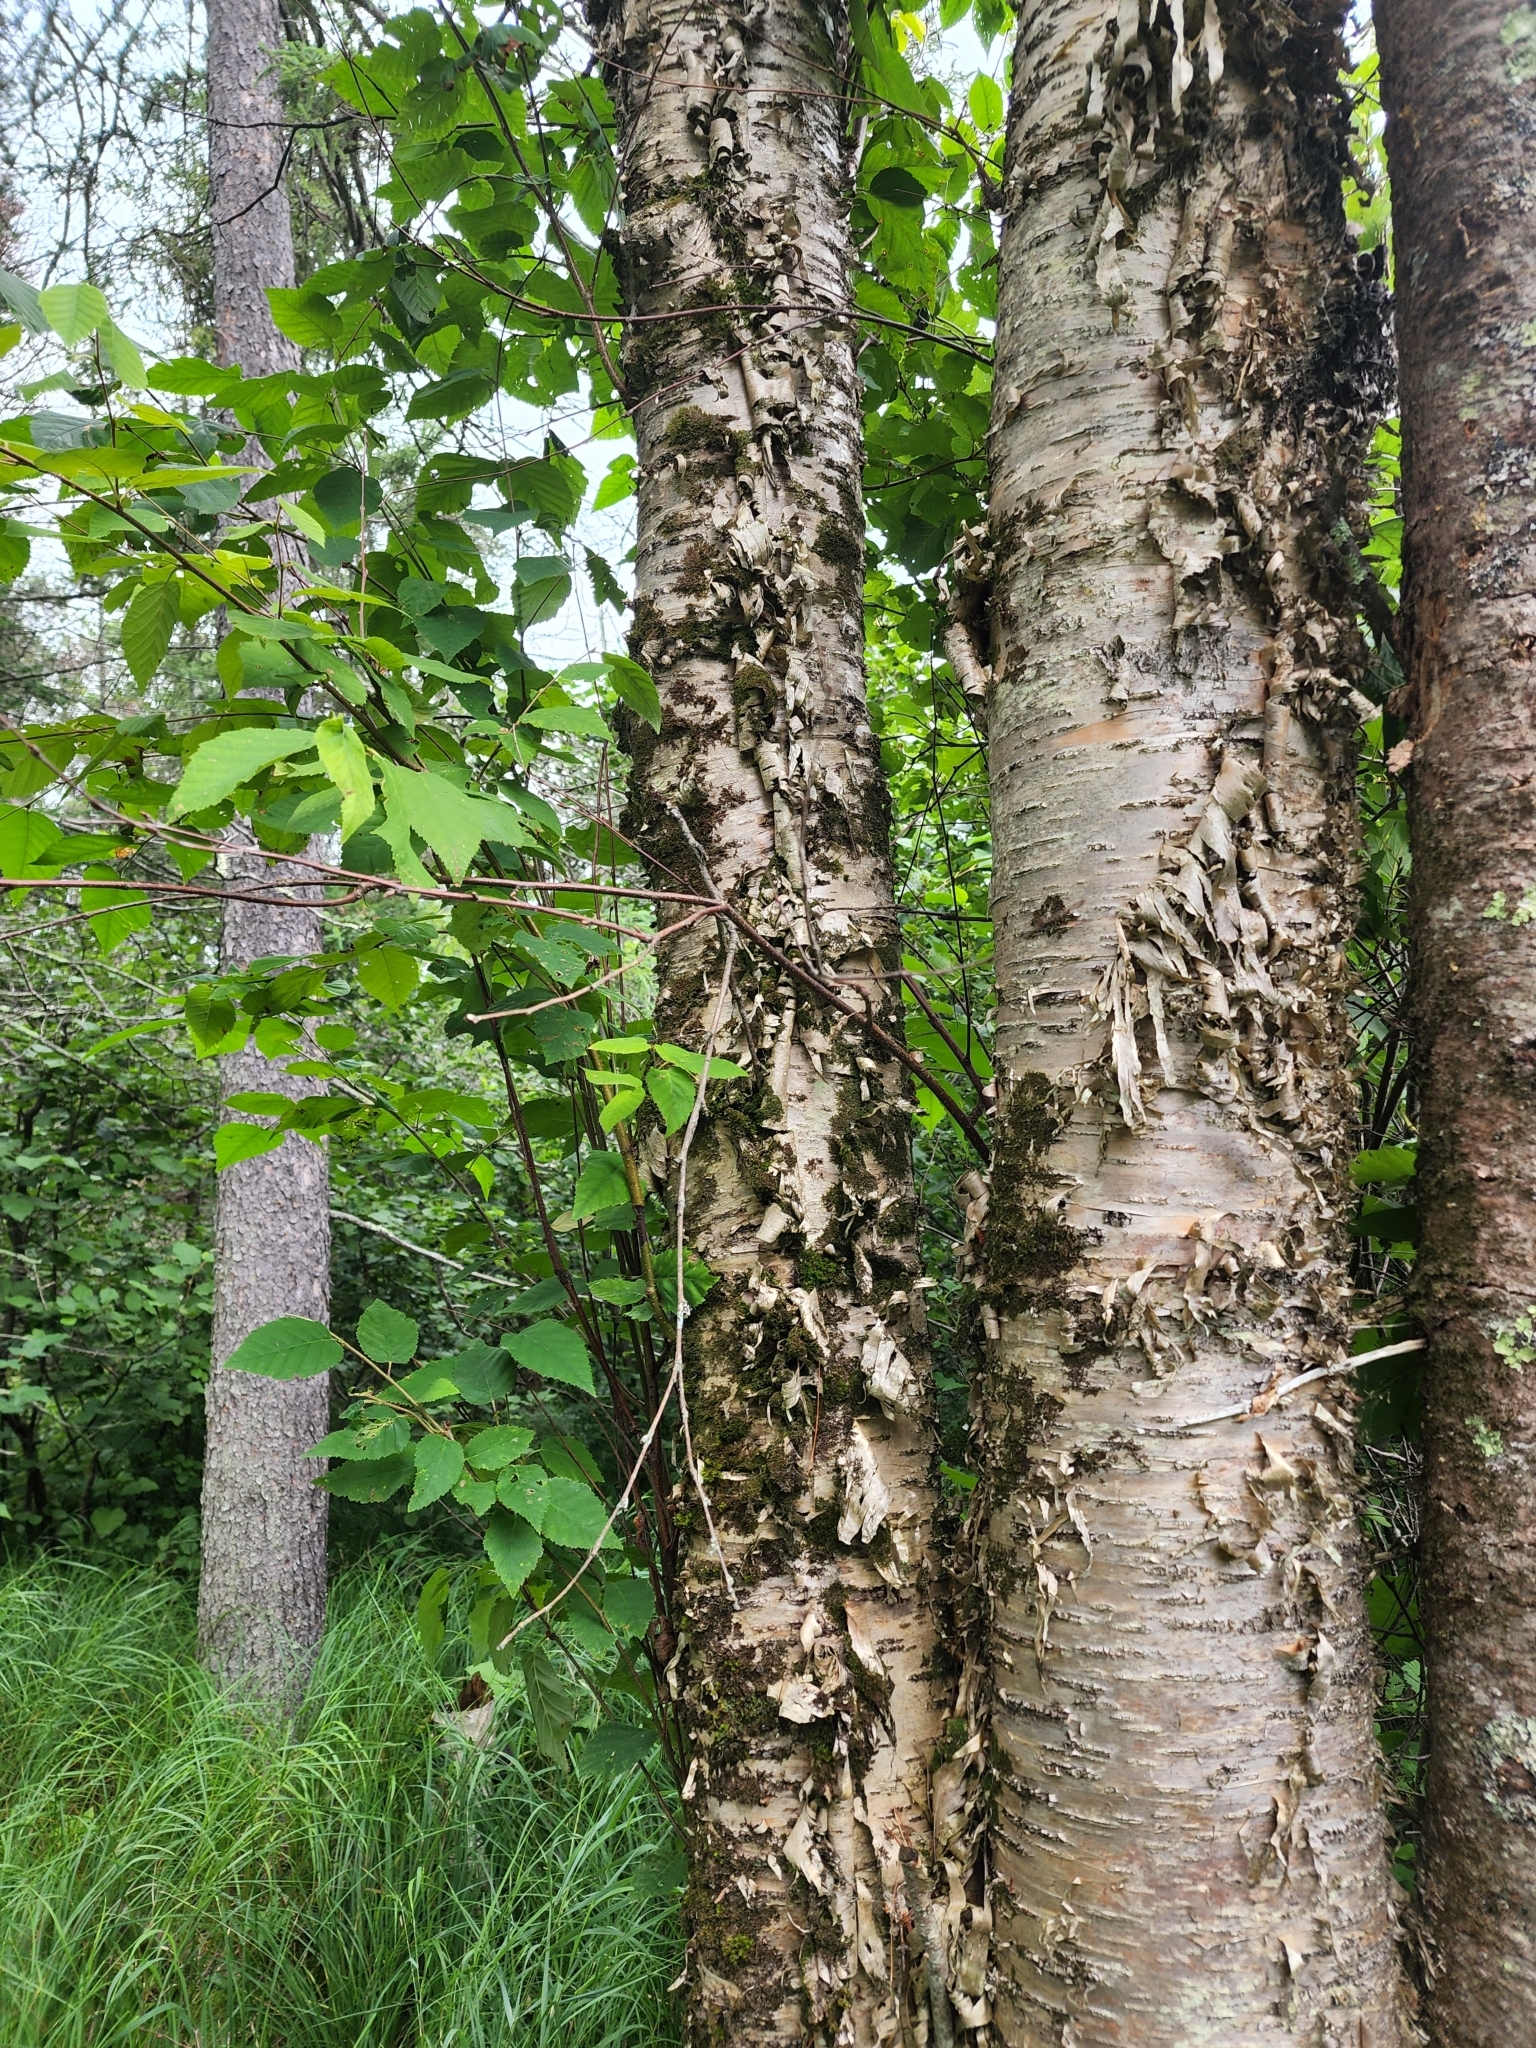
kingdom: Plantae
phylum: Tracheophyta
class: Magnoliopsida
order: Fagales
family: Betulaceae
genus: Betula
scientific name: Betula alleghaniensis
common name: Yellow birch
